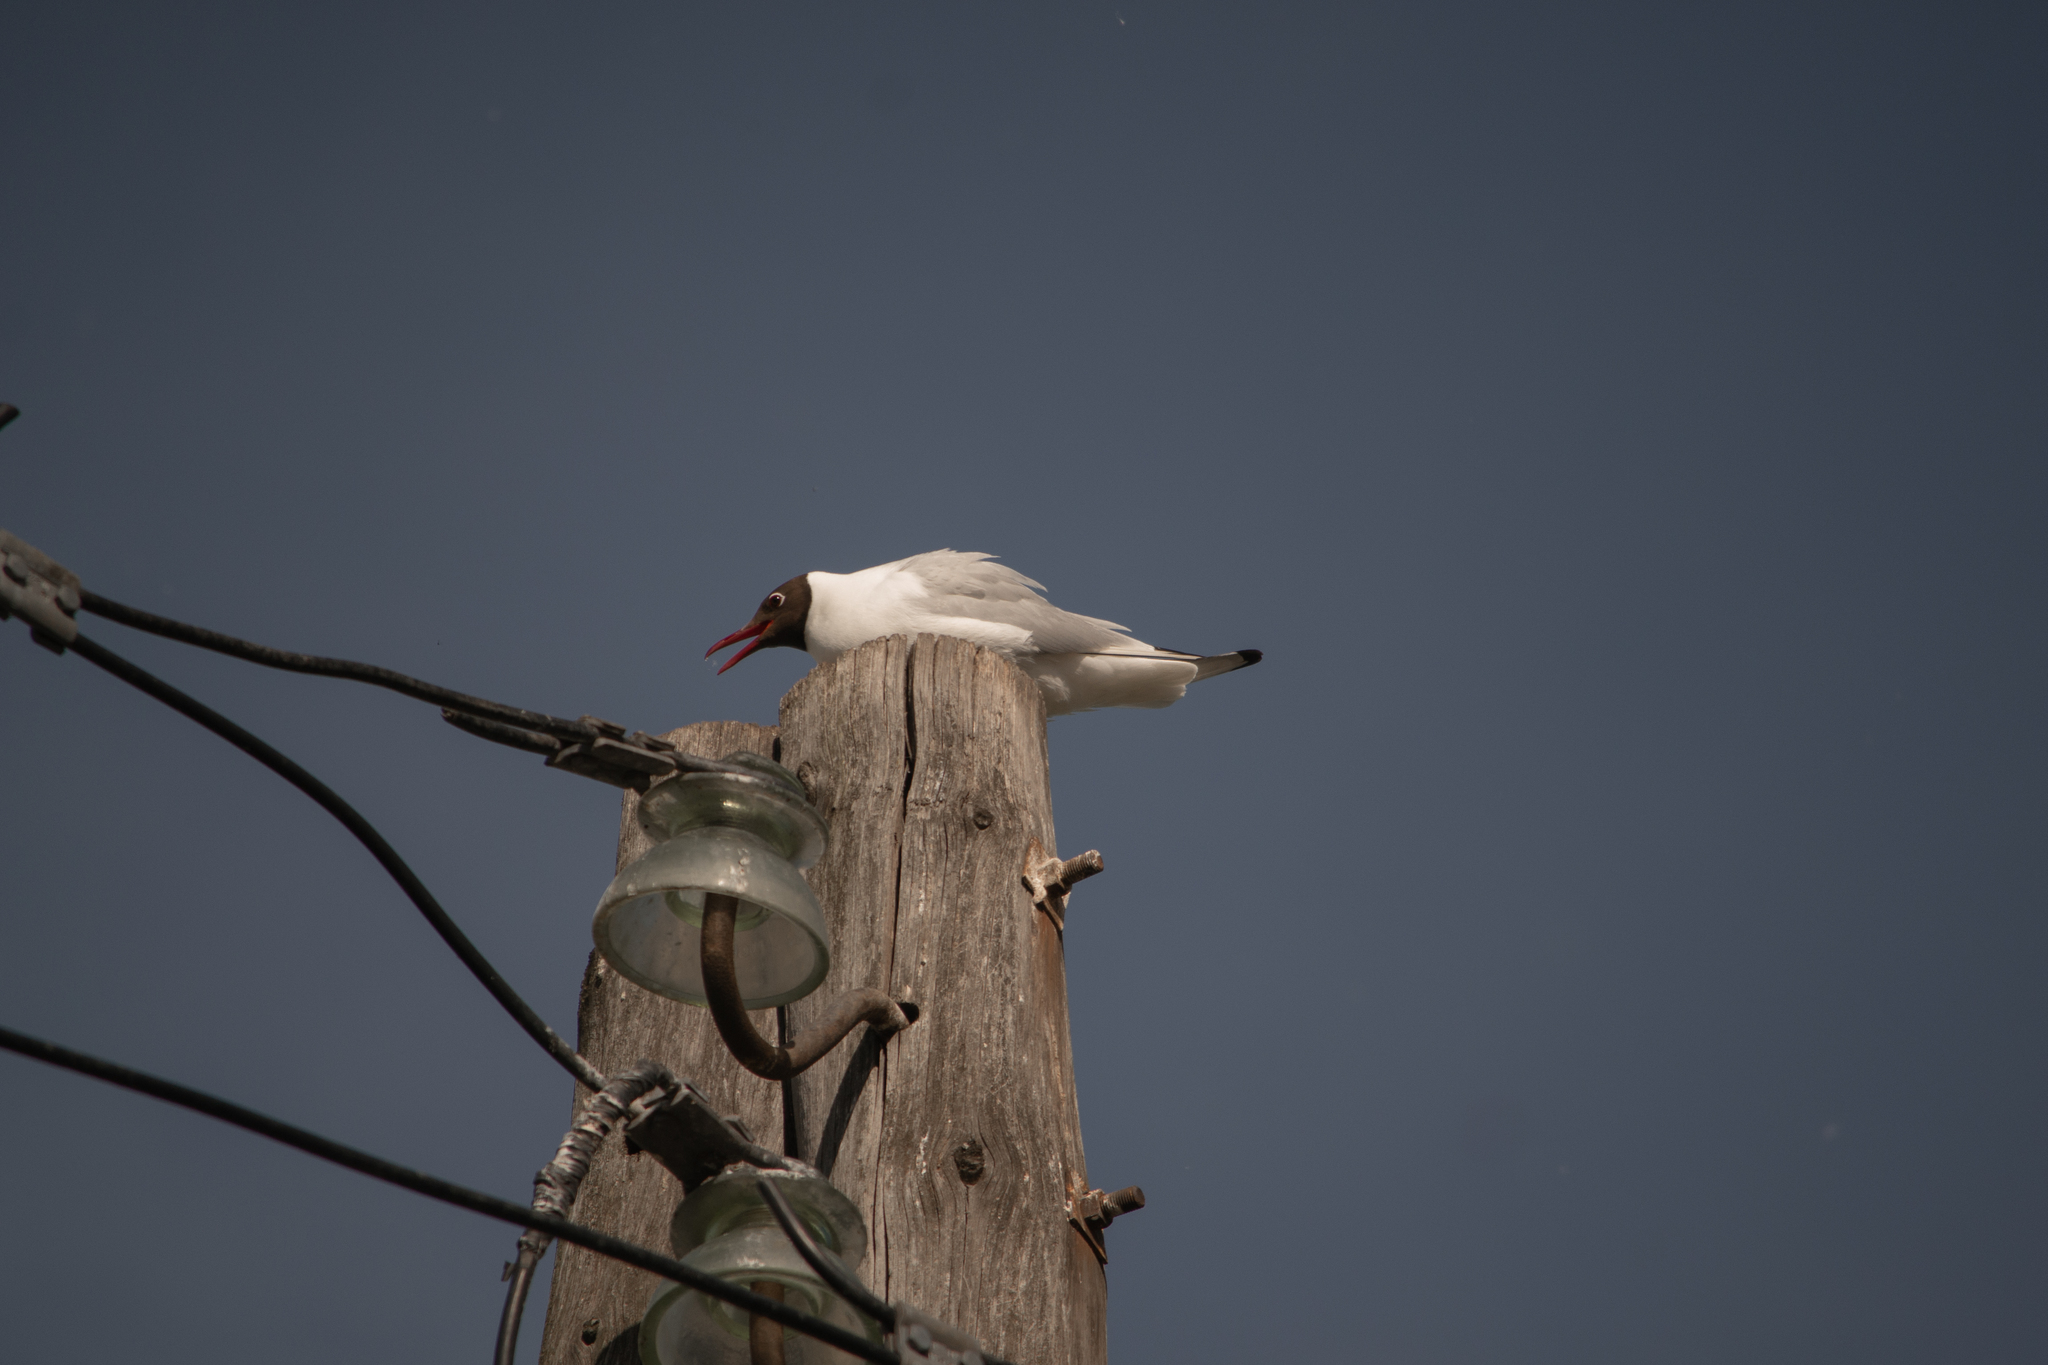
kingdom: Animalia
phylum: Chordata
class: Aves
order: Charadriiformes
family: Laridae
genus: Chroicocephalus
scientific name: Chroicocephalus ridibundus
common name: Black-headed gull
